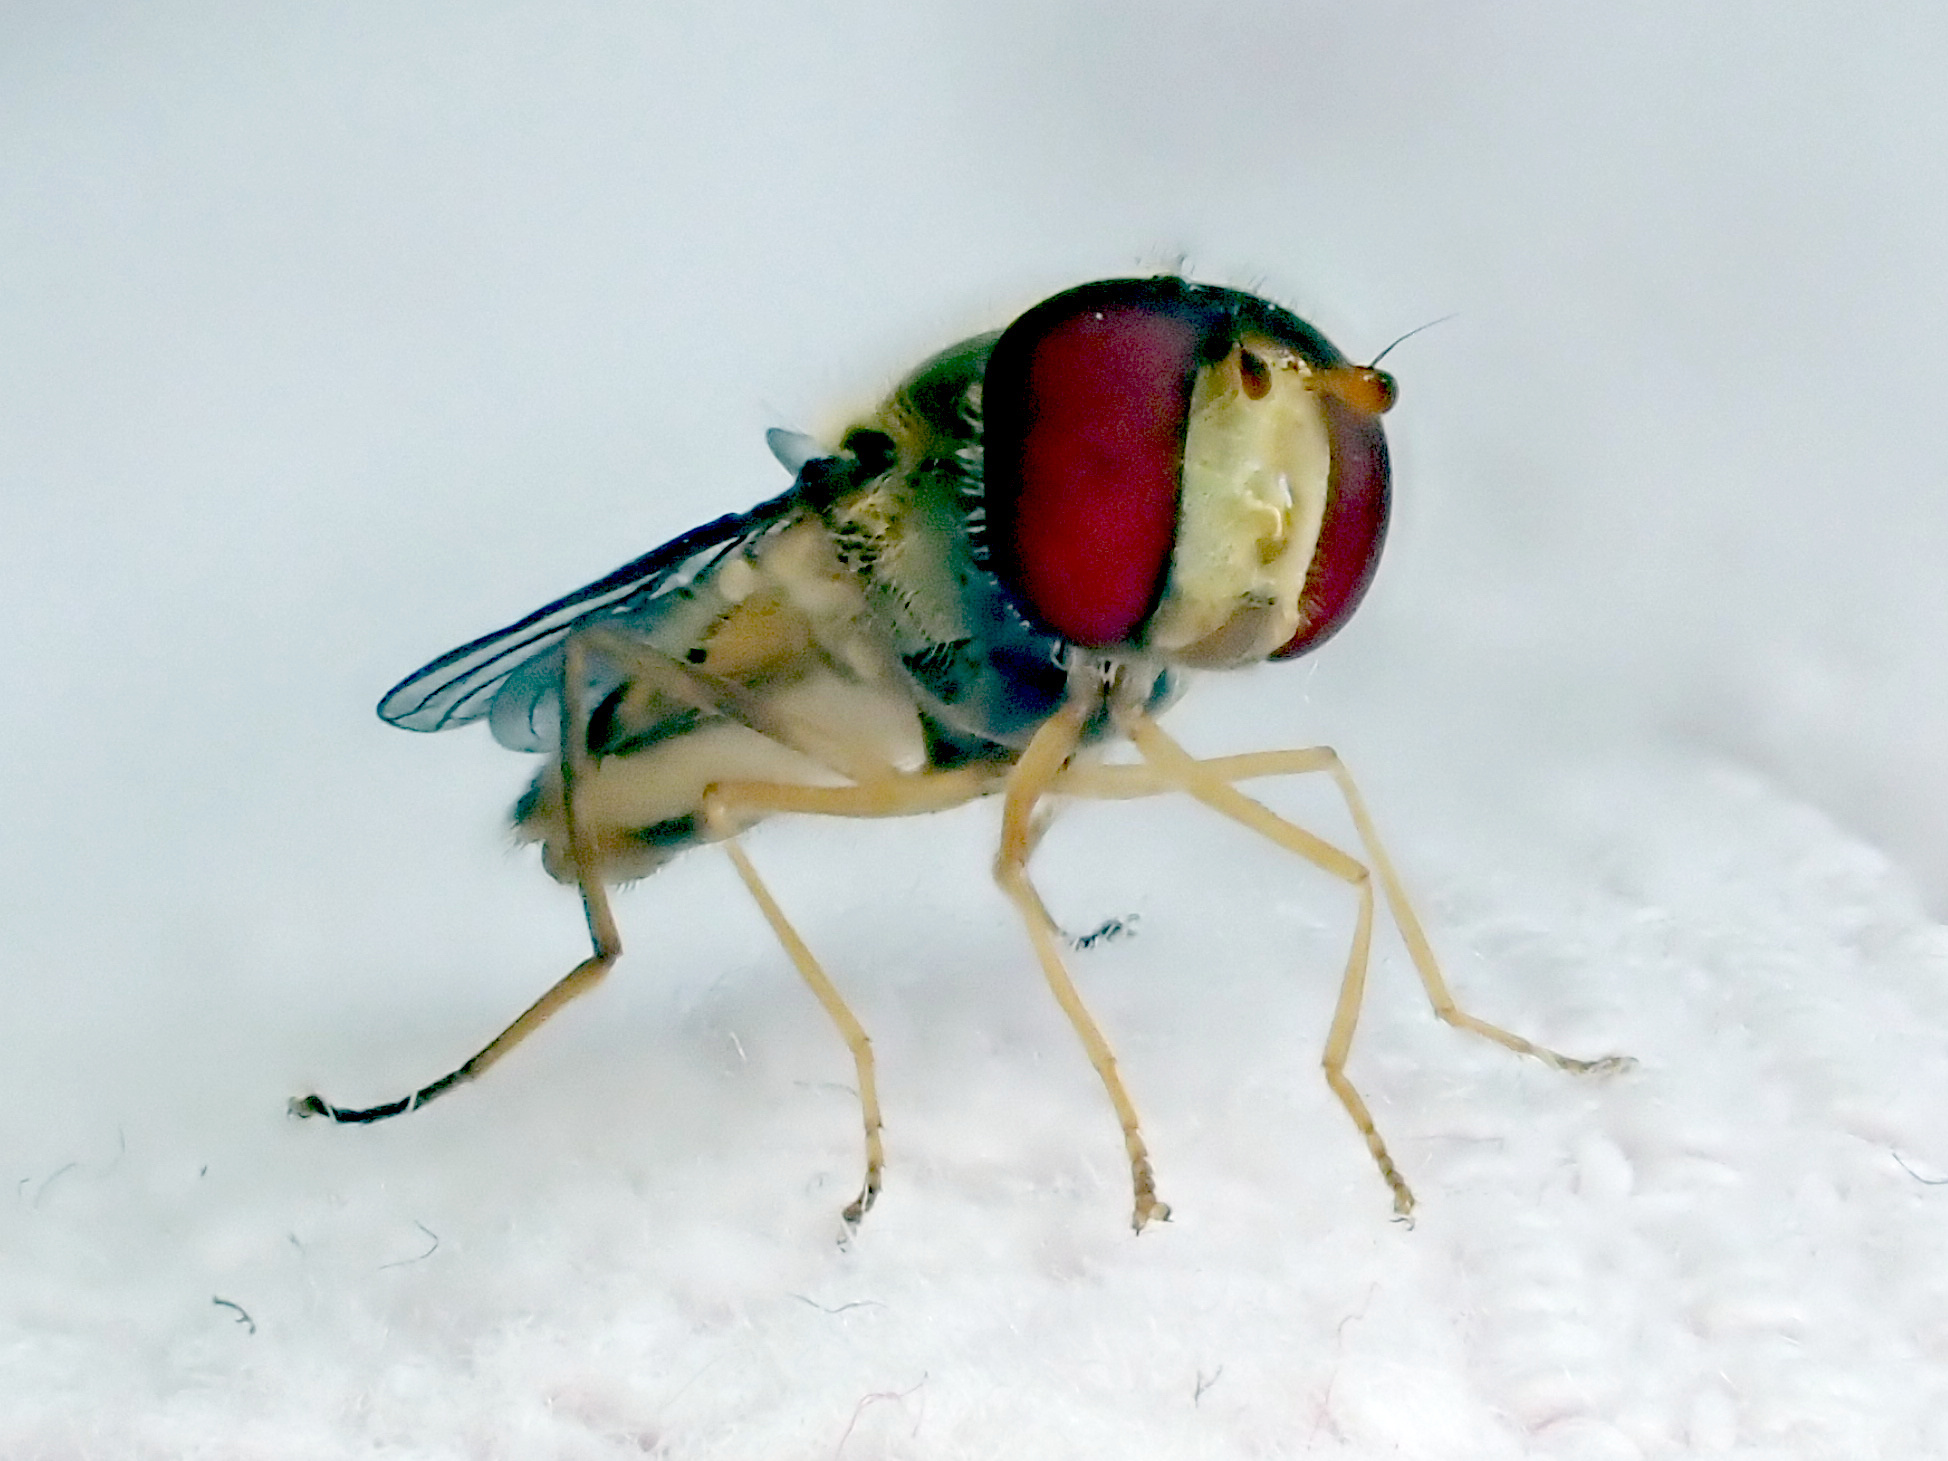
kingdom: Animalia
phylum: Arthropoda
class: Insecta
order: Diptera
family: Syrphidae
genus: Episyrphus
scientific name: Episyrphus balteatus
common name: Marmalade hoverfly
